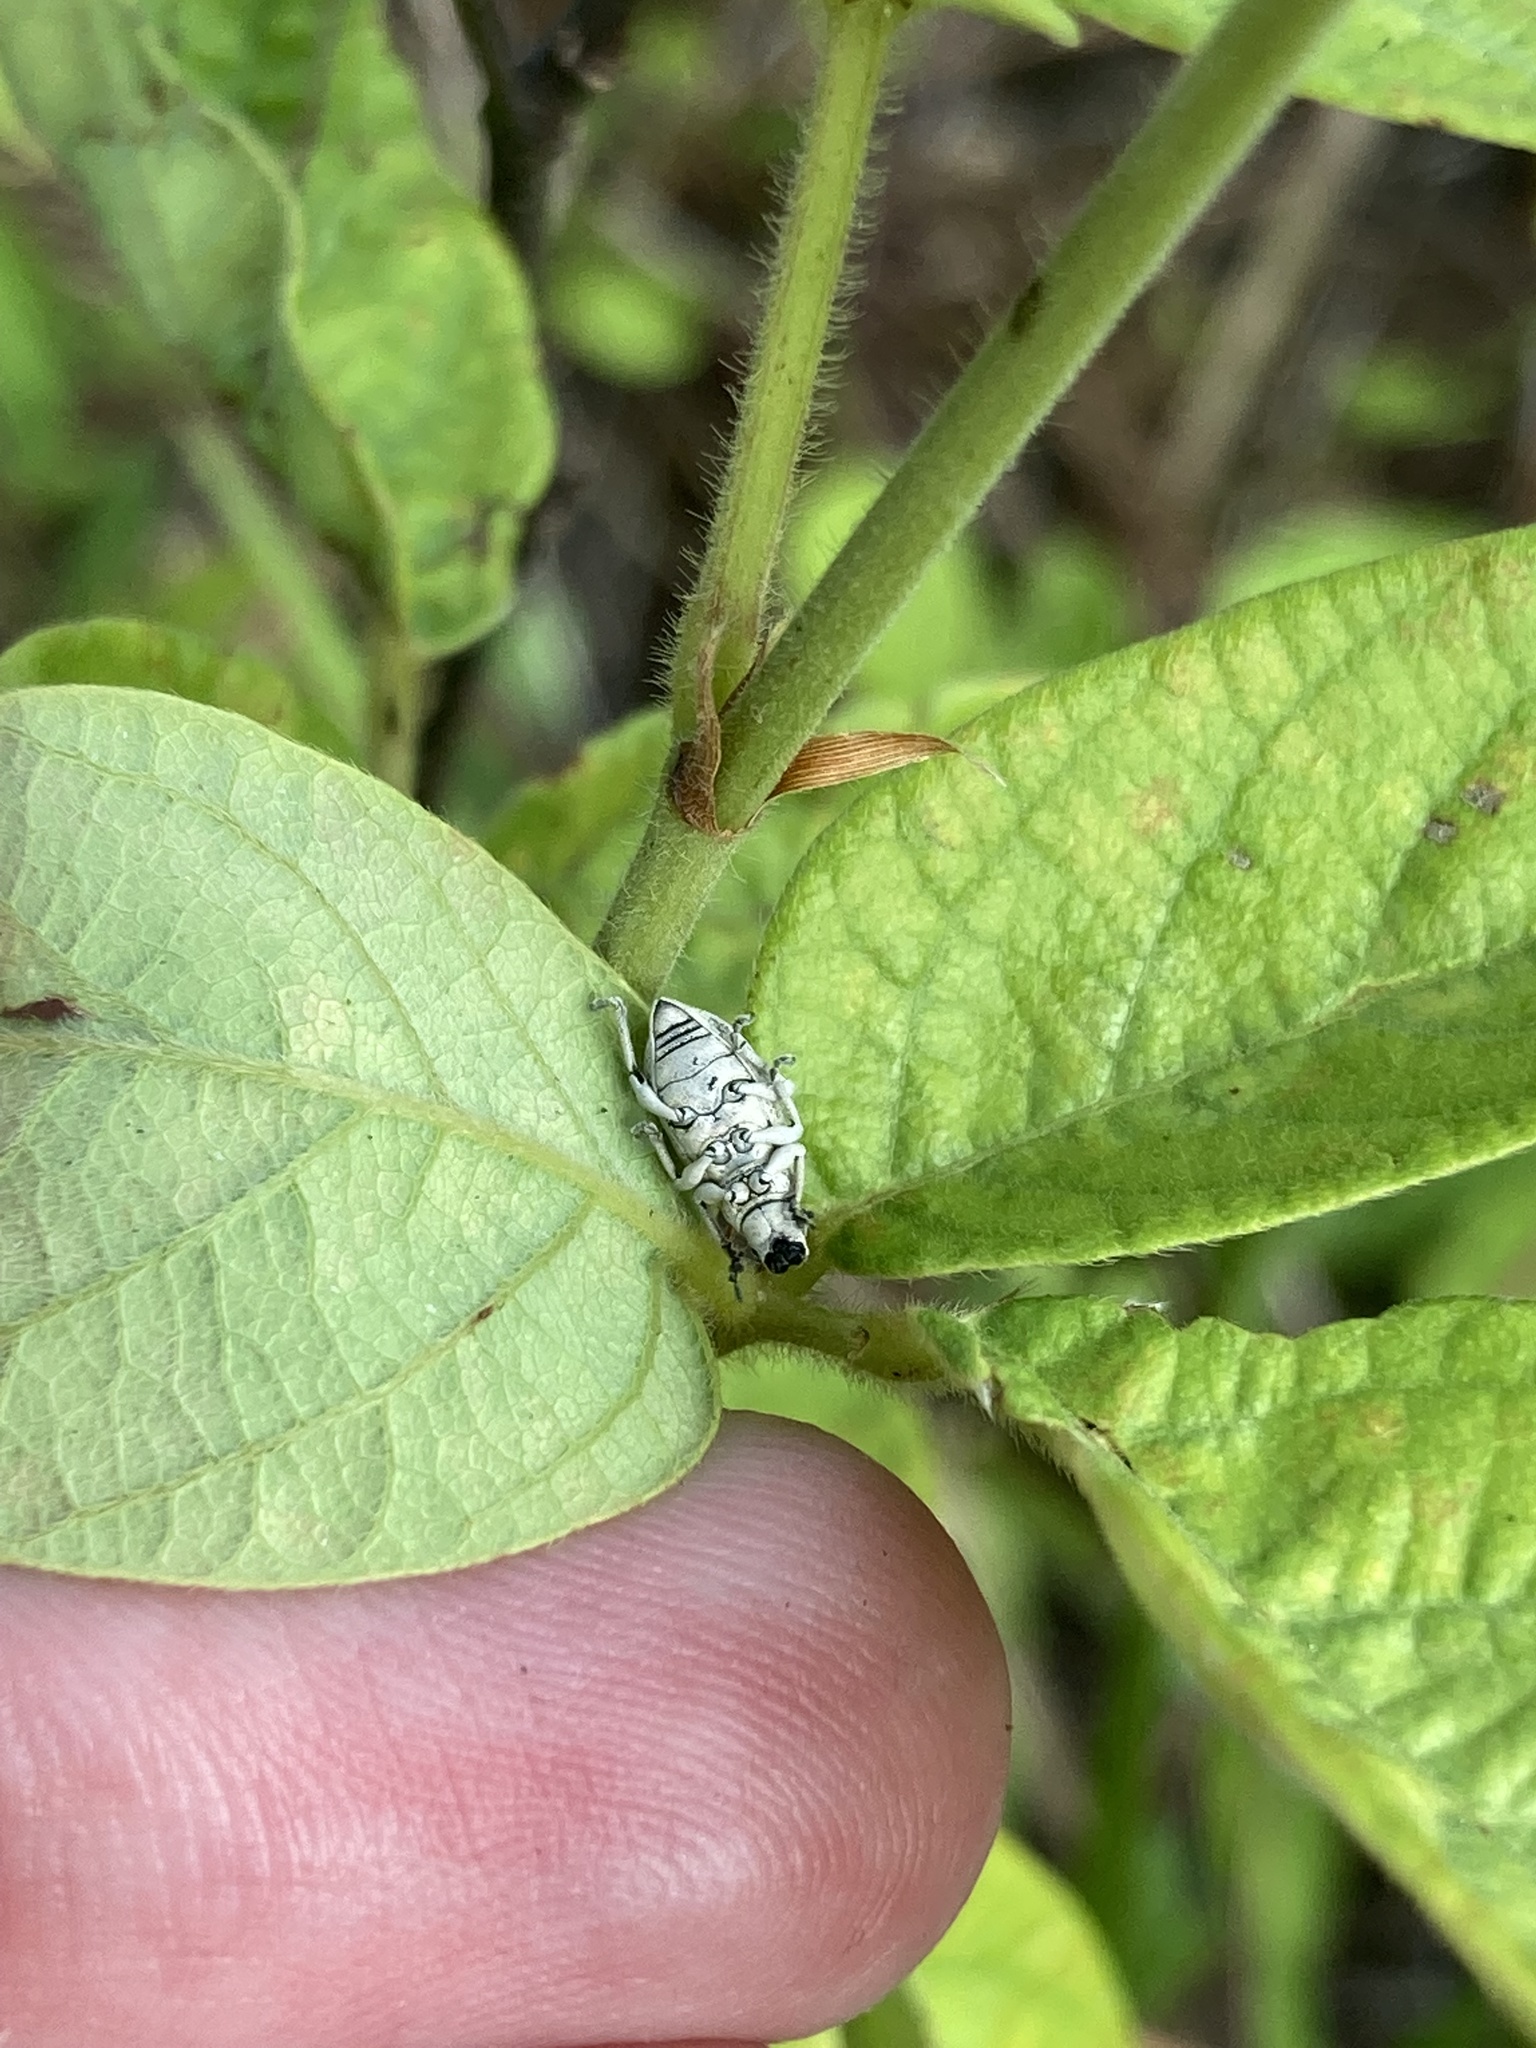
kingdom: Animalia
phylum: Arthropoda
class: Insecta
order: Coleoptera
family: Curculionidae
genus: Artipus
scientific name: Artipus floridanus
